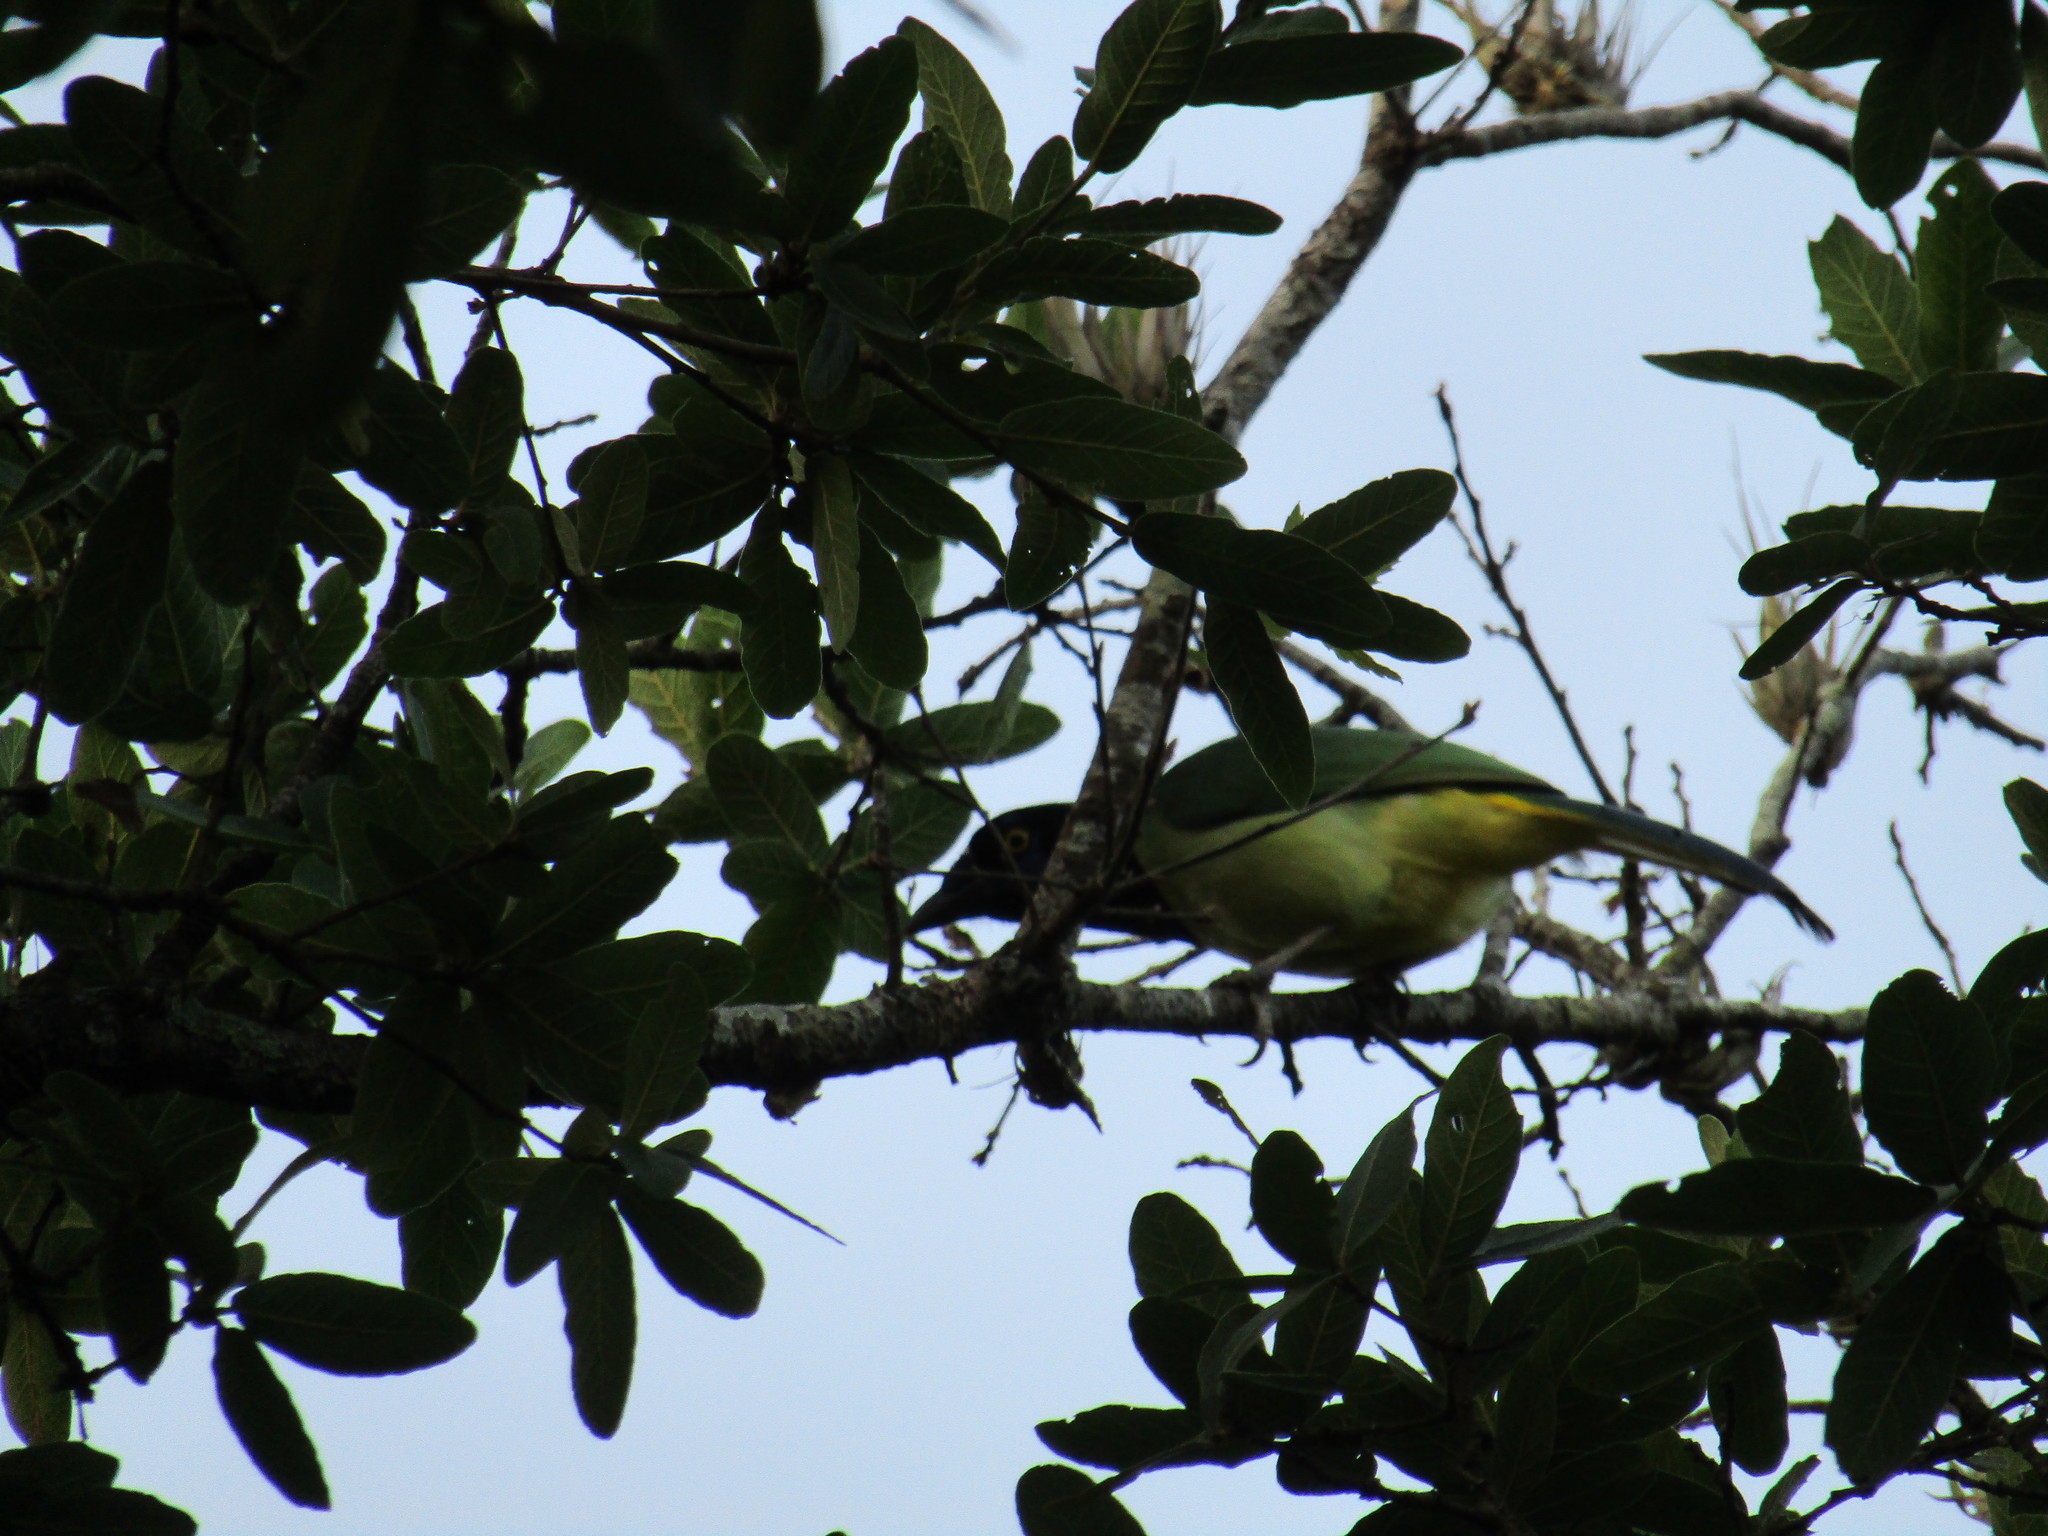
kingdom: Animalia
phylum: Chordata
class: Aves
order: Passeriformes
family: Corvidae
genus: Cyanocorax
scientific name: Cyanocorax yncas
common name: Green jay
